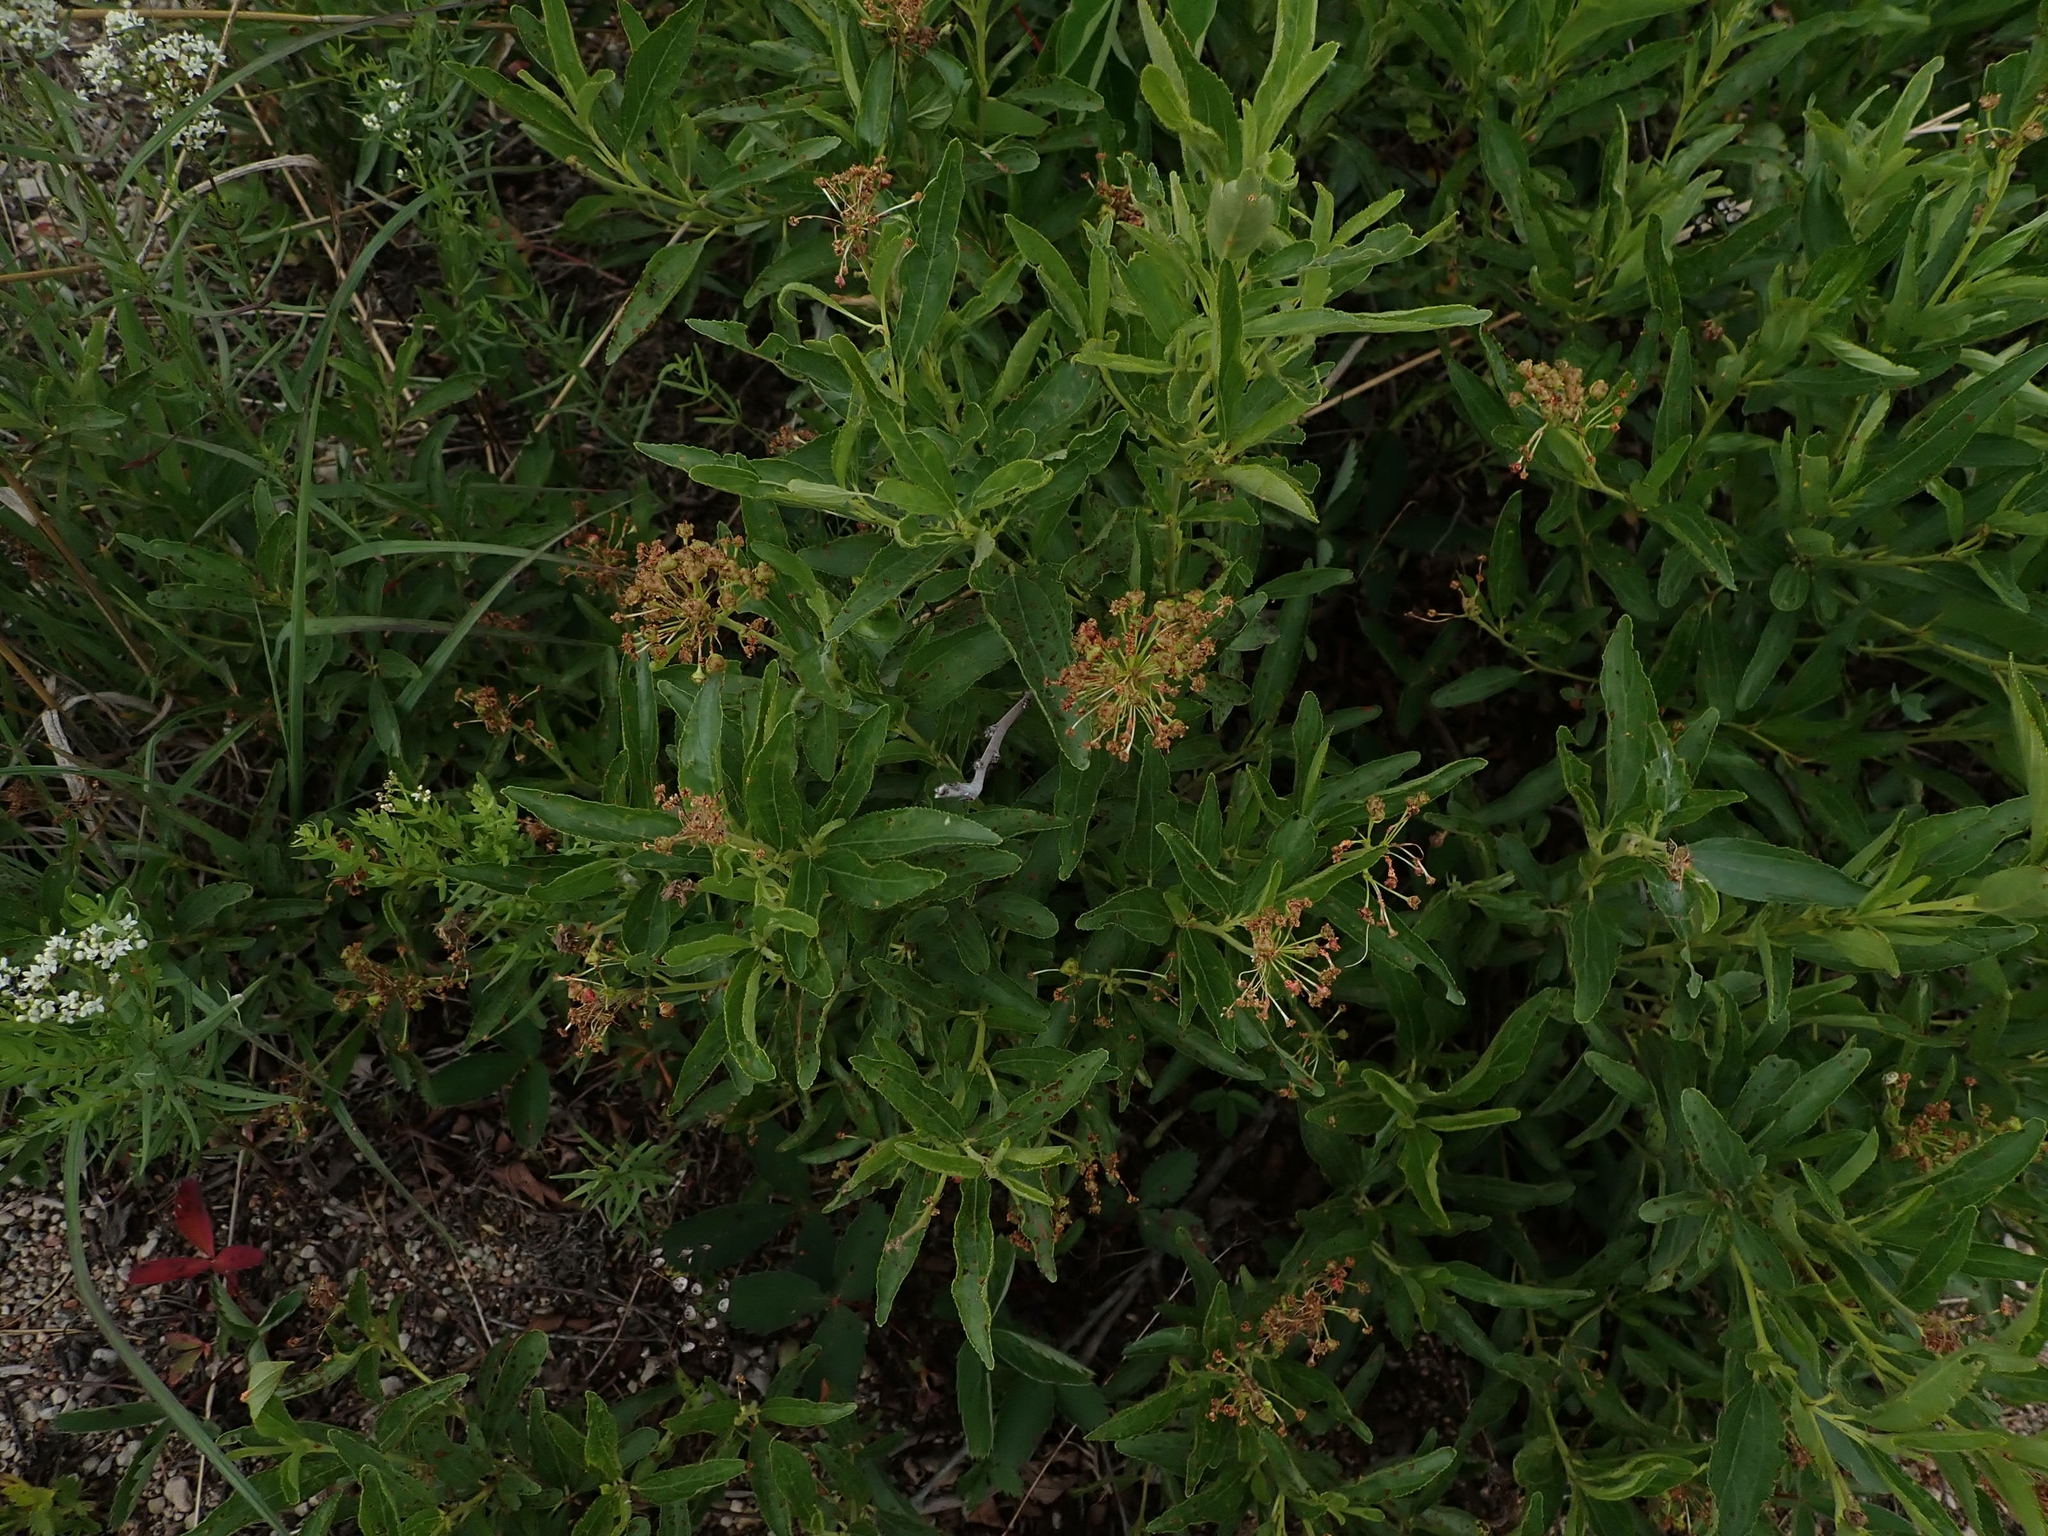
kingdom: Plantae
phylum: Tracheophyta
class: Magnoliopsida
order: Rosales
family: Rhamnaceae
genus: Ceanothus
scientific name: Ceanothus herbaceus
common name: Inland ceanothus
